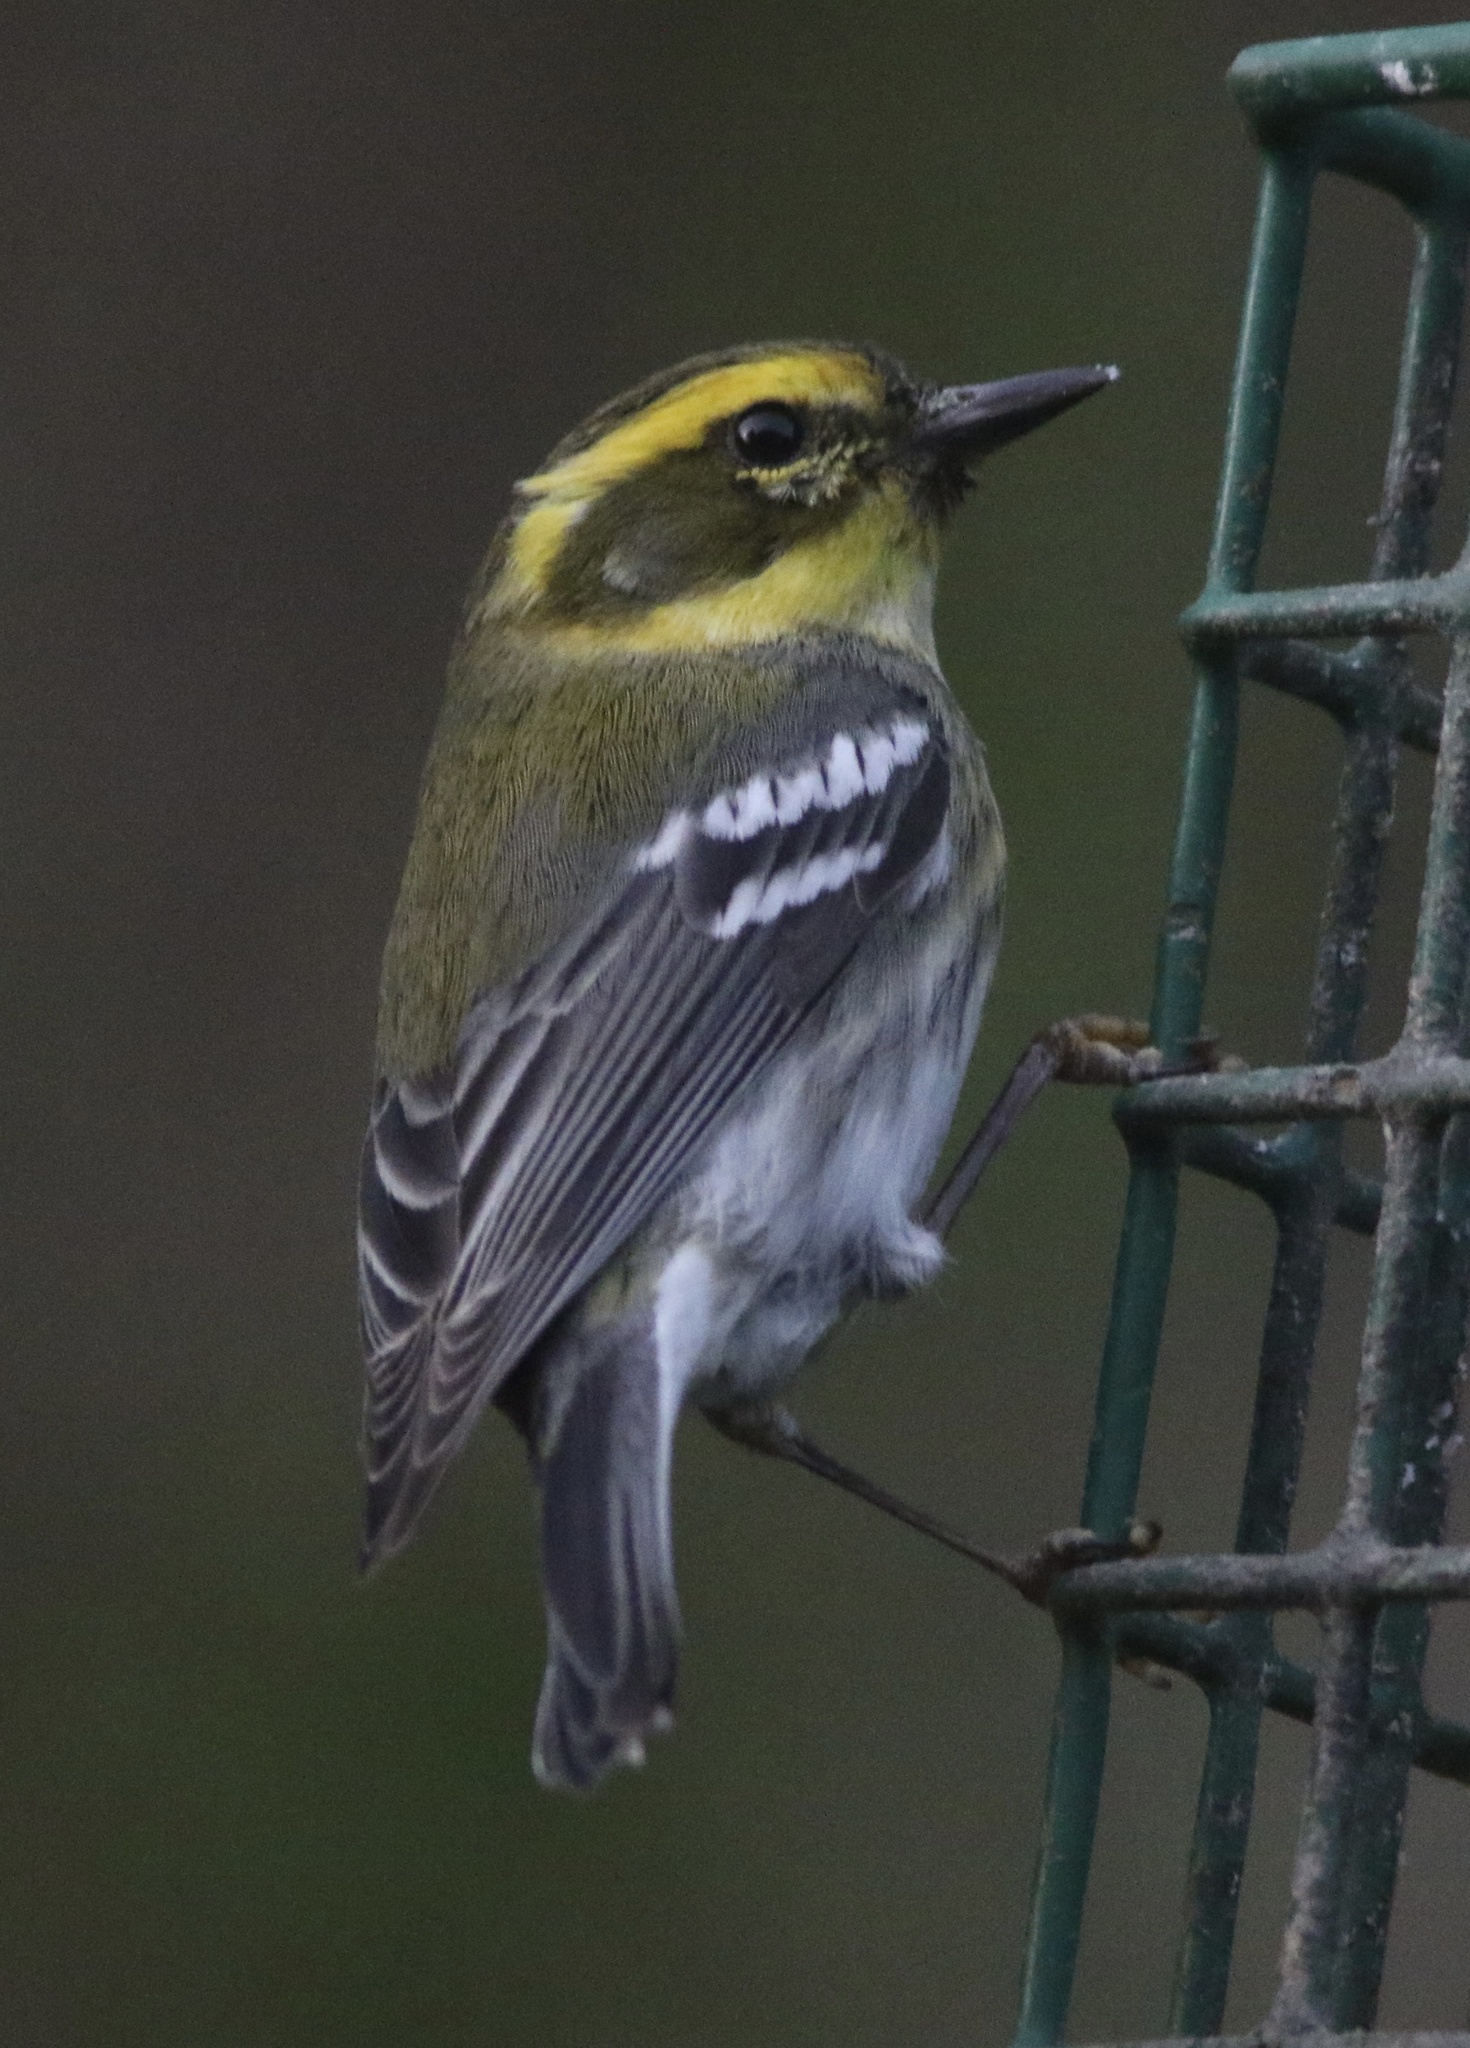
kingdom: Animalia
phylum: Chordata
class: Aves
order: Passeriformes
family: Parulidae
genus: Setophaga
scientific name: Setophaga townsendi
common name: Townsend's warbler
